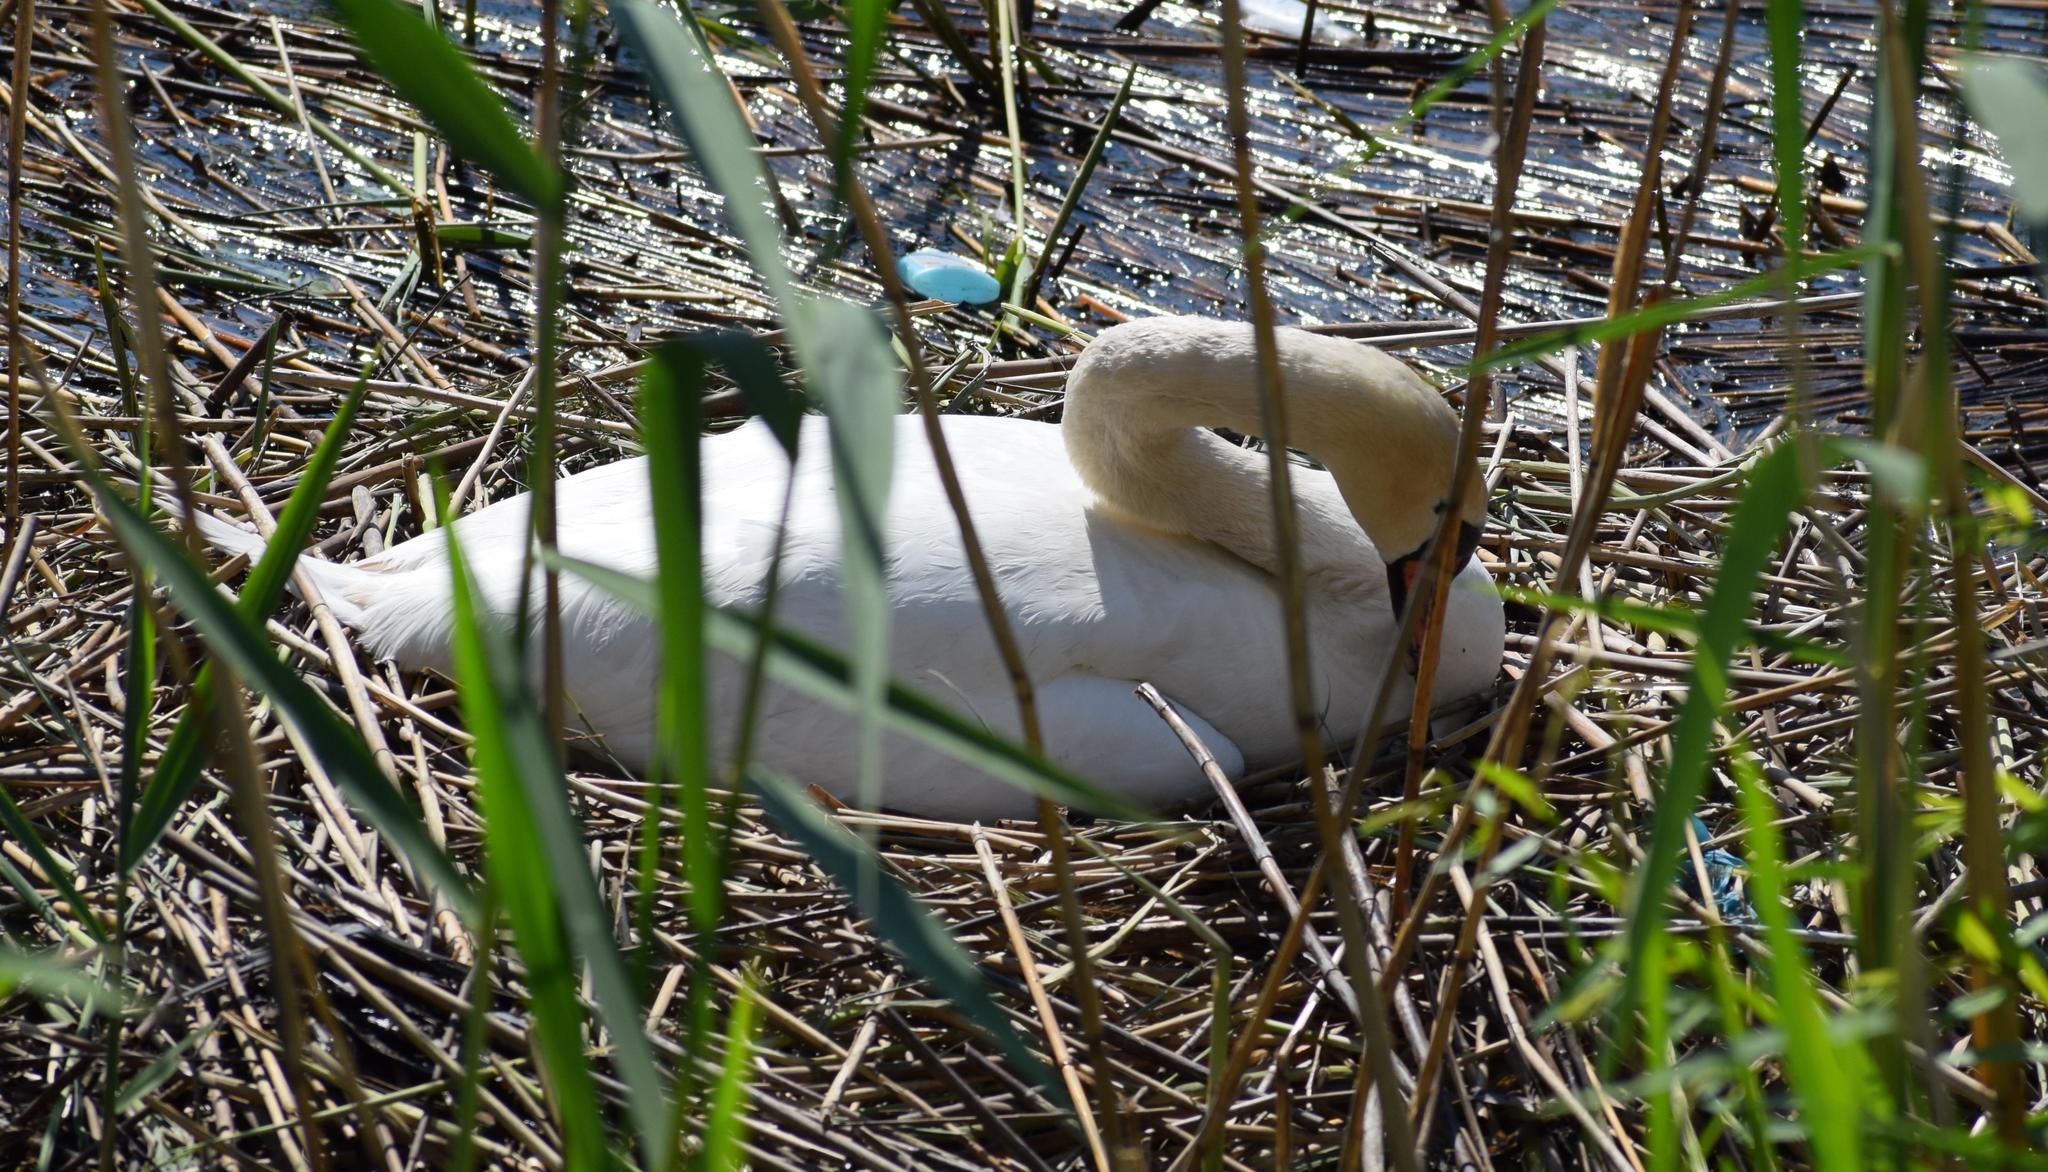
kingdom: Animalia
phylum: Chordata
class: Aves
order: Anseriformes
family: Anatidae
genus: Cygnus
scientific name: Cygnus olor
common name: Mute swan
